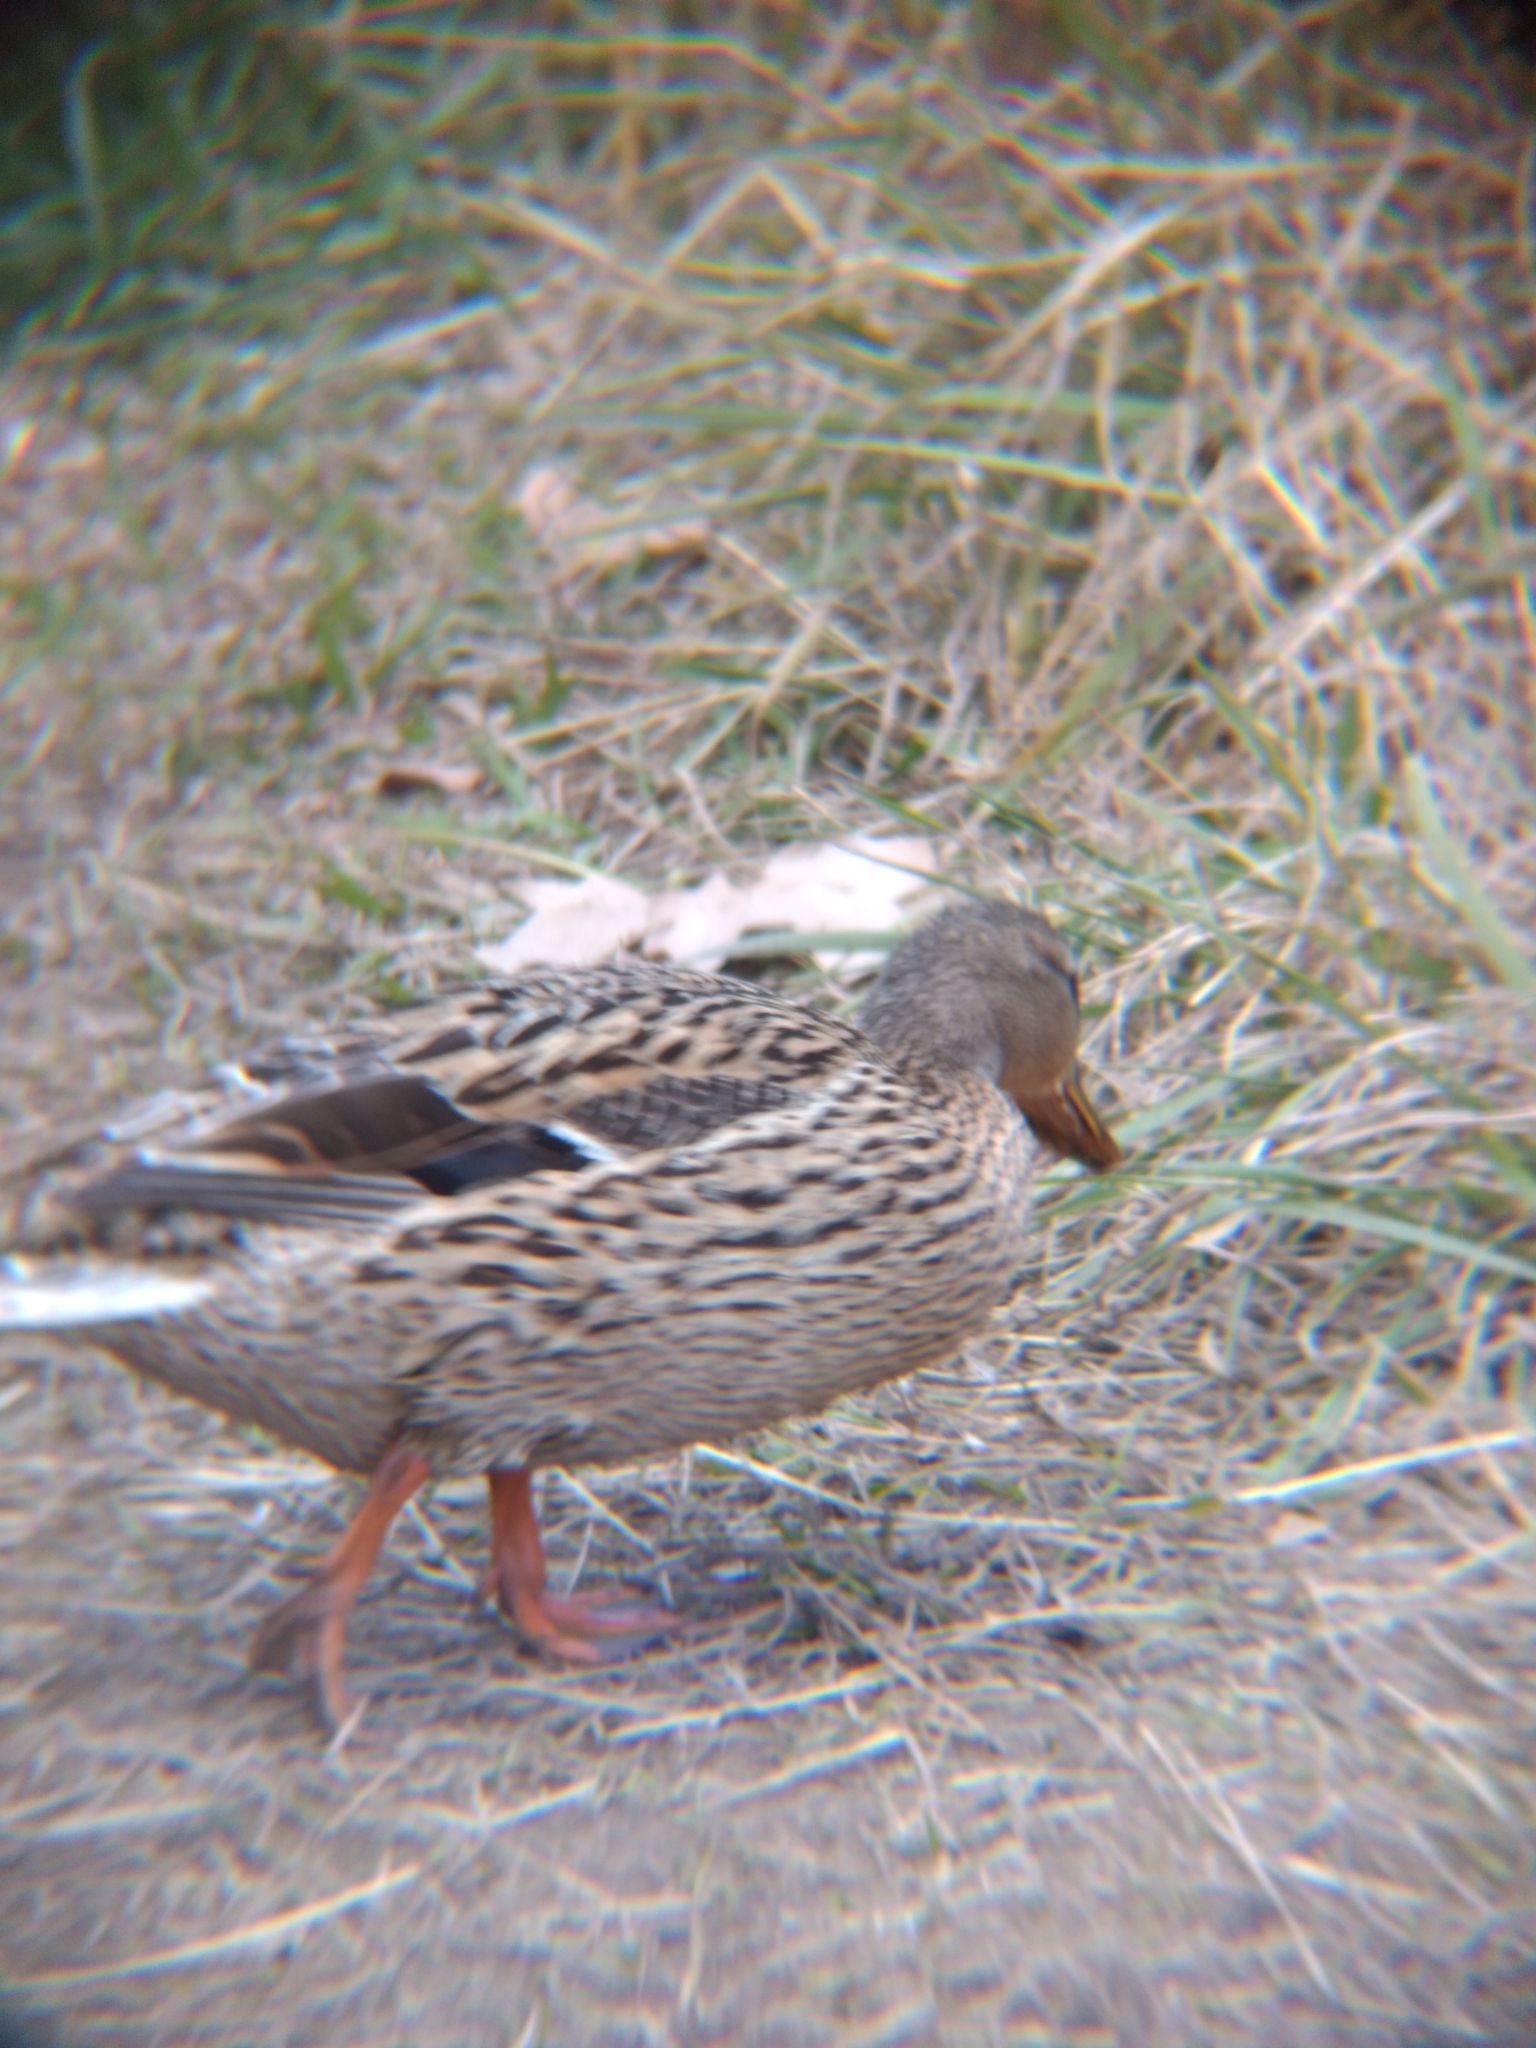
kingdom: Animalia
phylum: Chordata
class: Aves
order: Anseriformes
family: Anatidae
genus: Anas
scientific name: Anas platyrhynchos
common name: Mallard
